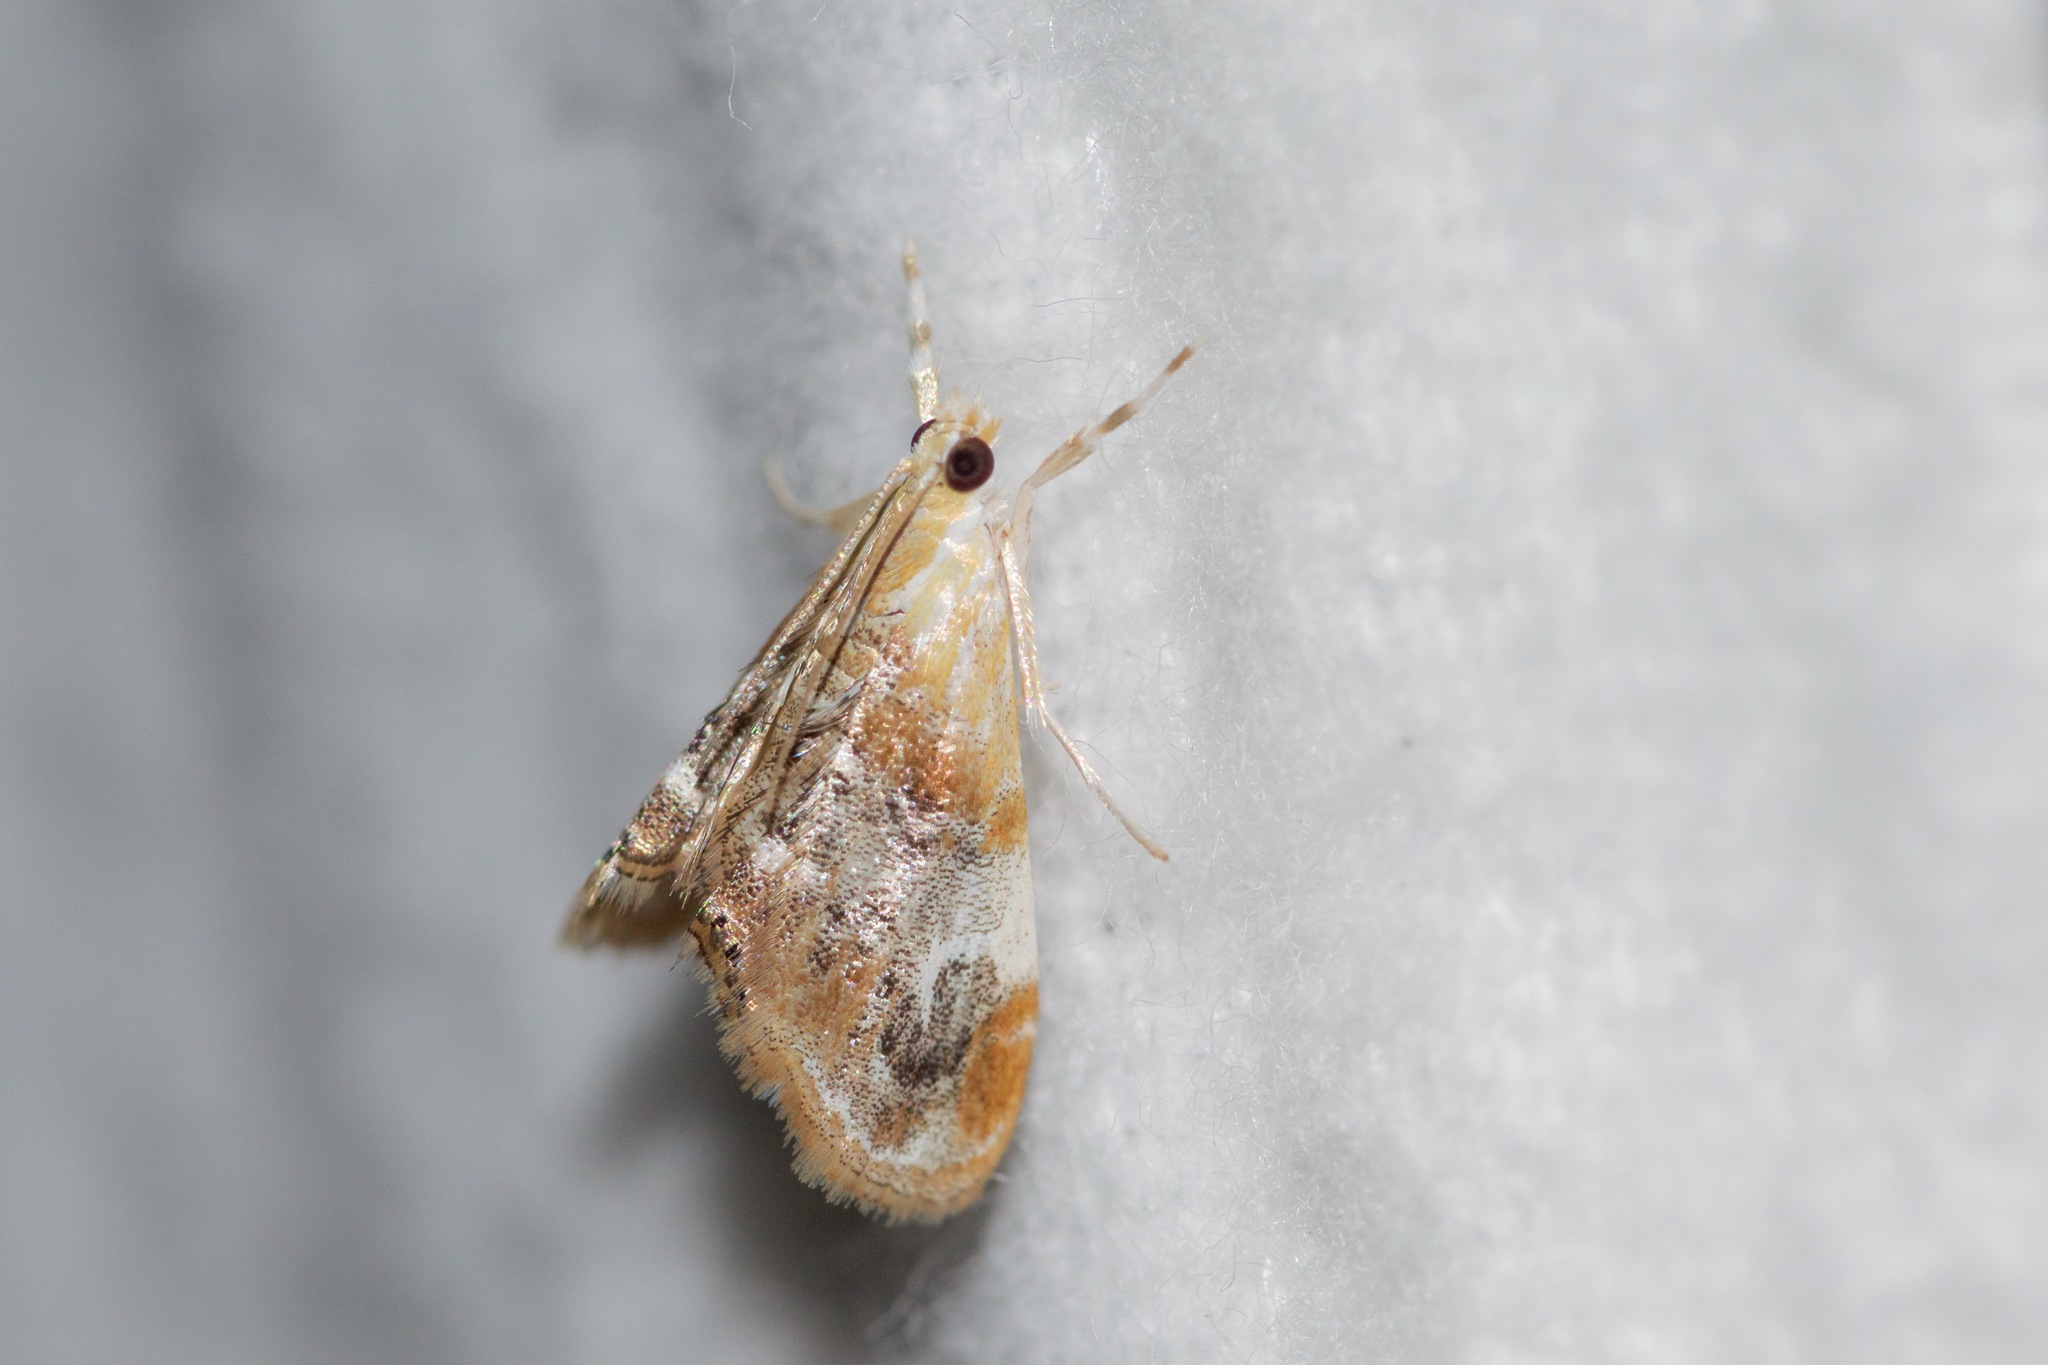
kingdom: Animalia
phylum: Arthropoda
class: Insecta
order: Lepidoptera
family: Crambidae
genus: Dicymolomia
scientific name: Dicymolomia julianalis
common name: Julia's dicymolomia moth
